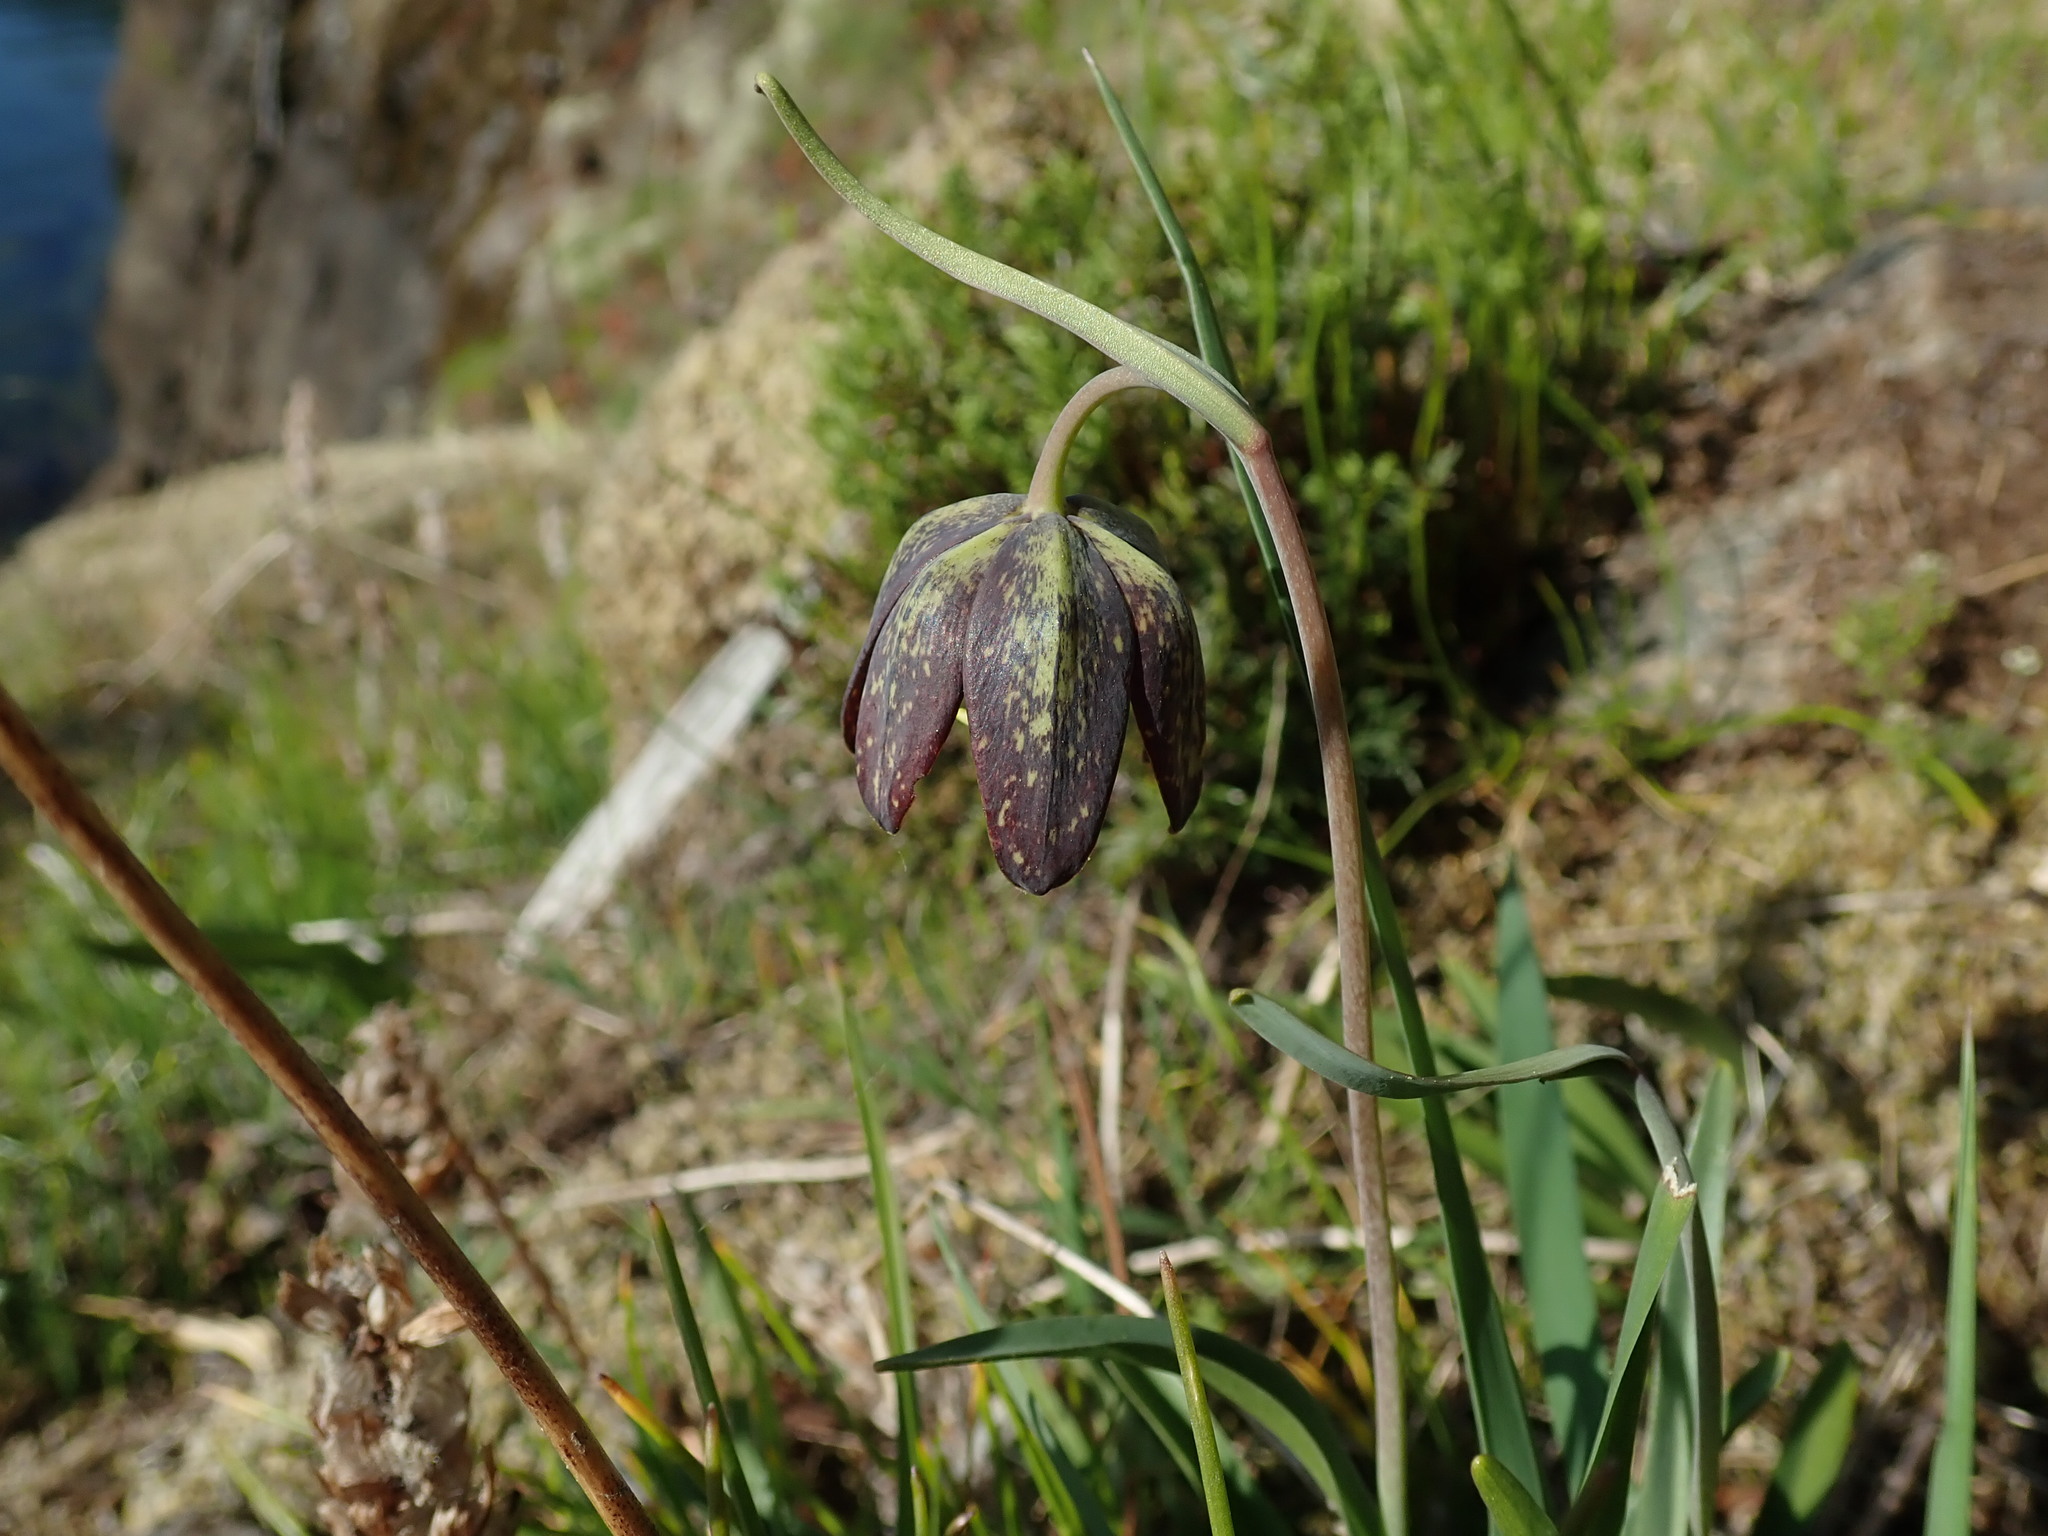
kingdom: Plantae
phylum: Tracheophyta
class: Liliopsida
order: Liliales
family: Liliaceae
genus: Fritillaria
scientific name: Fritillaria affinis
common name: Ojai fritillary
